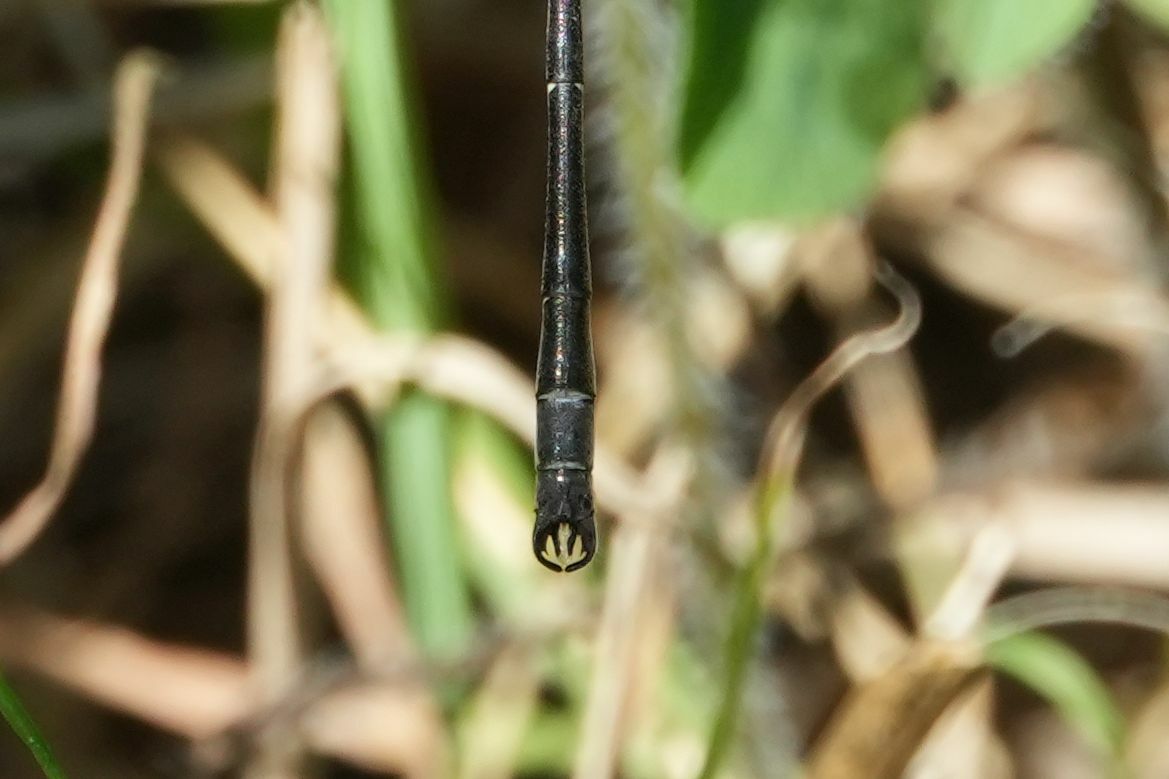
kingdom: Animalia
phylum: Arthropoda
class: Insecta
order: Odonata
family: Lestidae
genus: Lestes
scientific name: Lestes rectangularis
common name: Slender spreadwing
